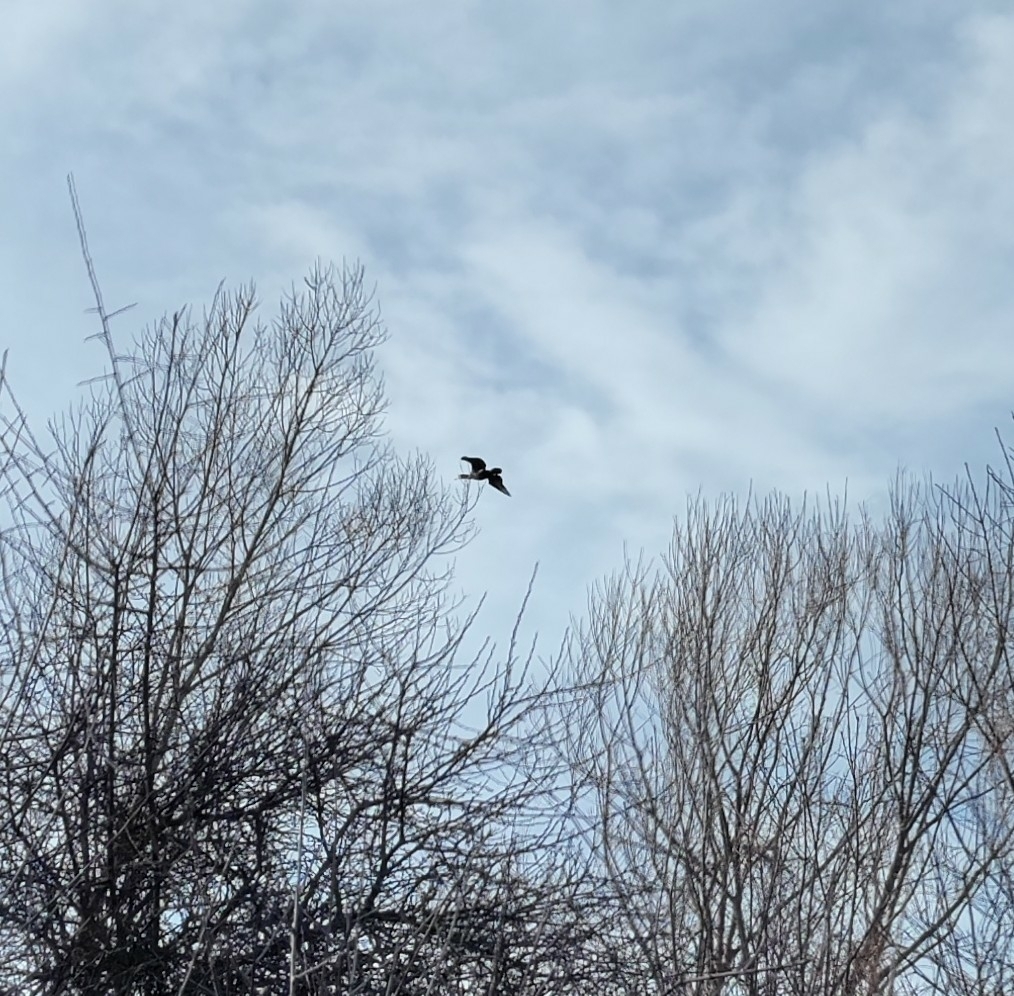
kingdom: Animalia
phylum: Chordata
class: Aves
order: Suliformes
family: Phalacrocoracidae
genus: Phalacrocorax
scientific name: Phalacrocorax carbo
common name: Great cormorant
